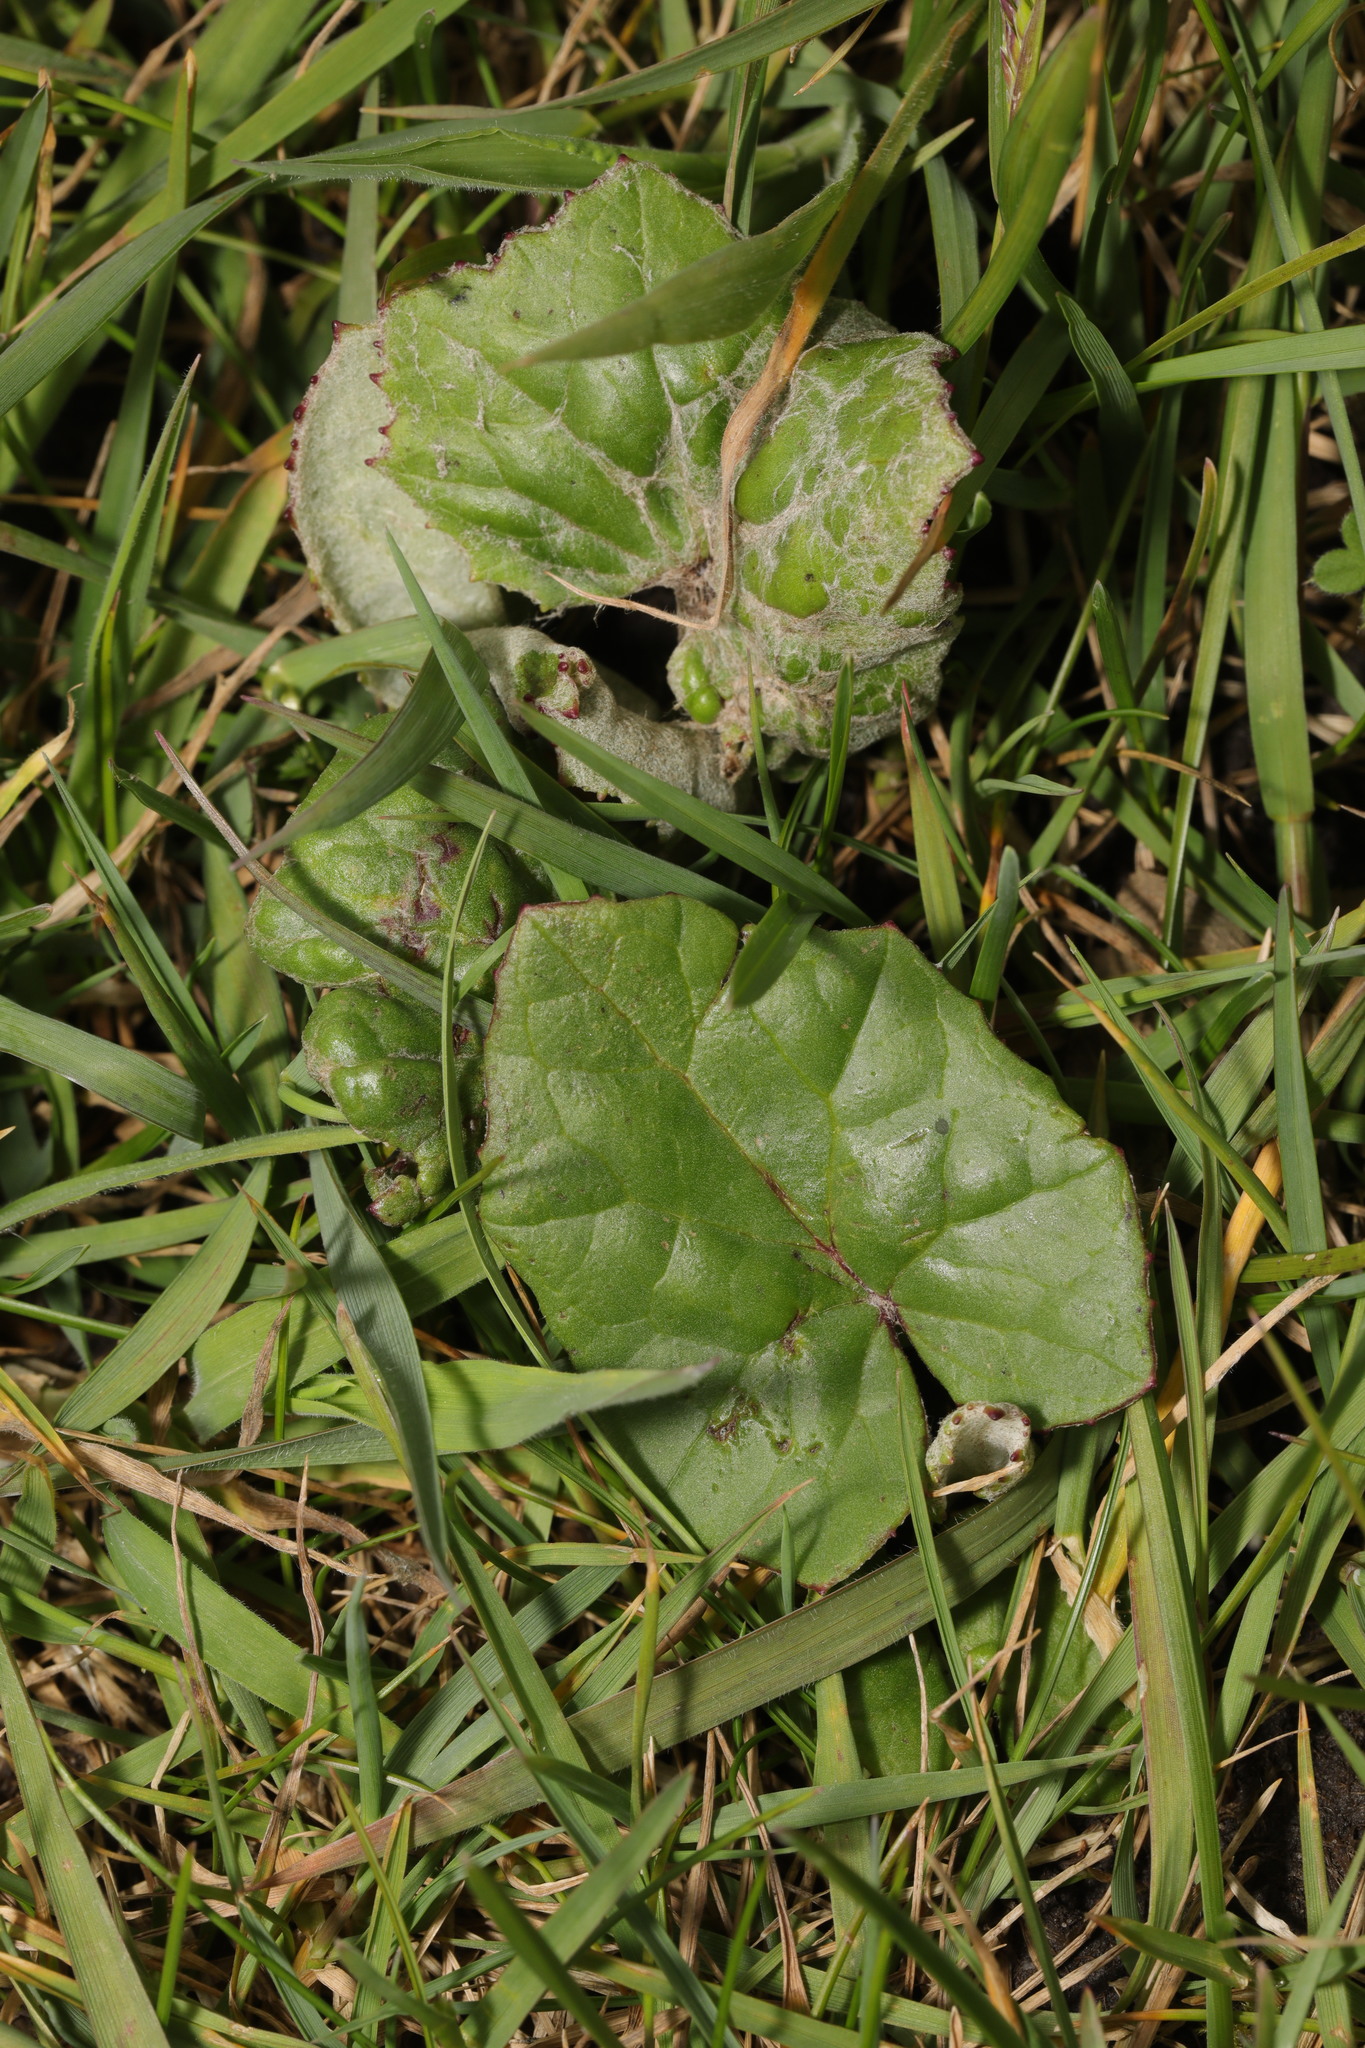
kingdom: Plantae
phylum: Tracheophyta
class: Magnoliopsida
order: Asterales
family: Asteraceae
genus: Tussilago
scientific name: Tussilago farfara
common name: Coltsfoot
